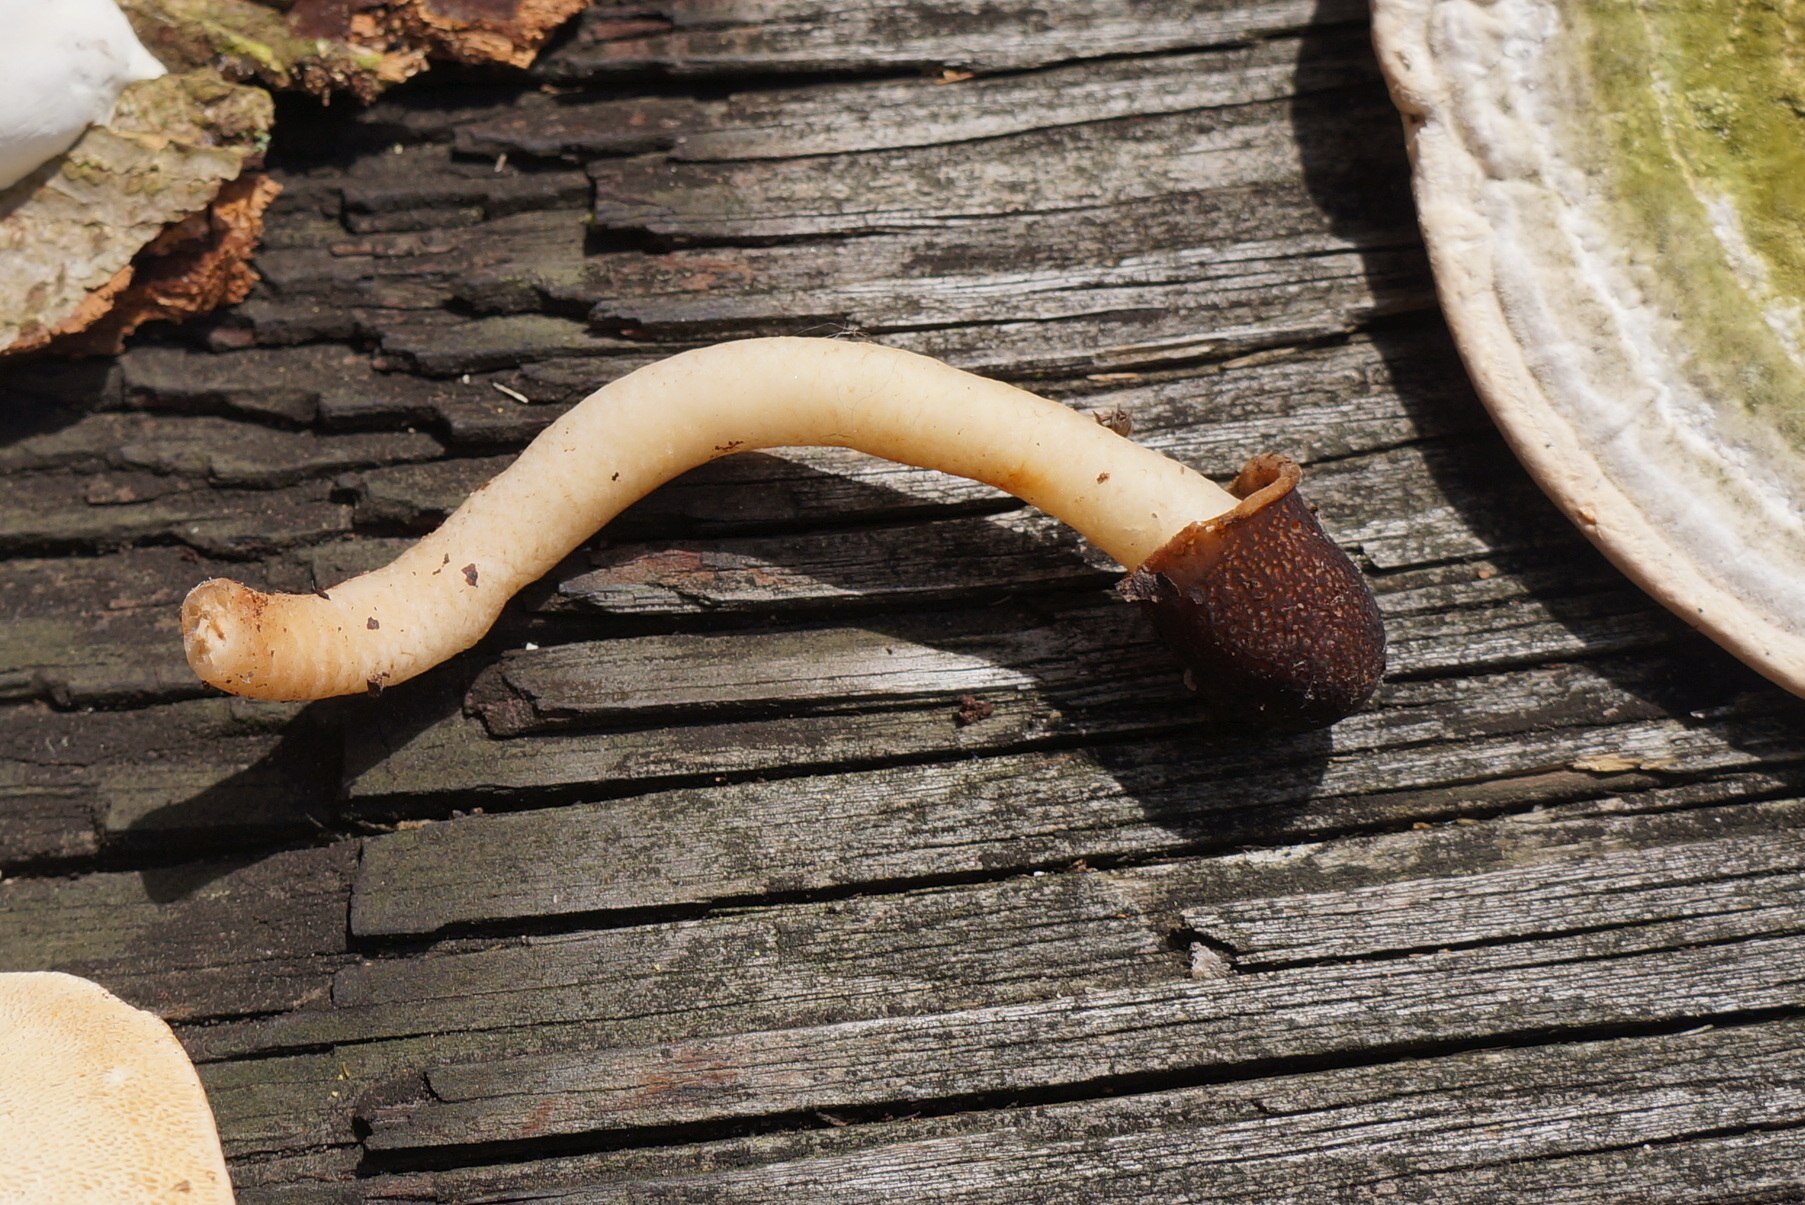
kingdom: Fungi
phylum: Ascomycota
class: Pezizomycetes
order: Pezizales
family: Morchellaceae
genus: Verpa
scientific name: Verpa conica
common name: Thimble morel
